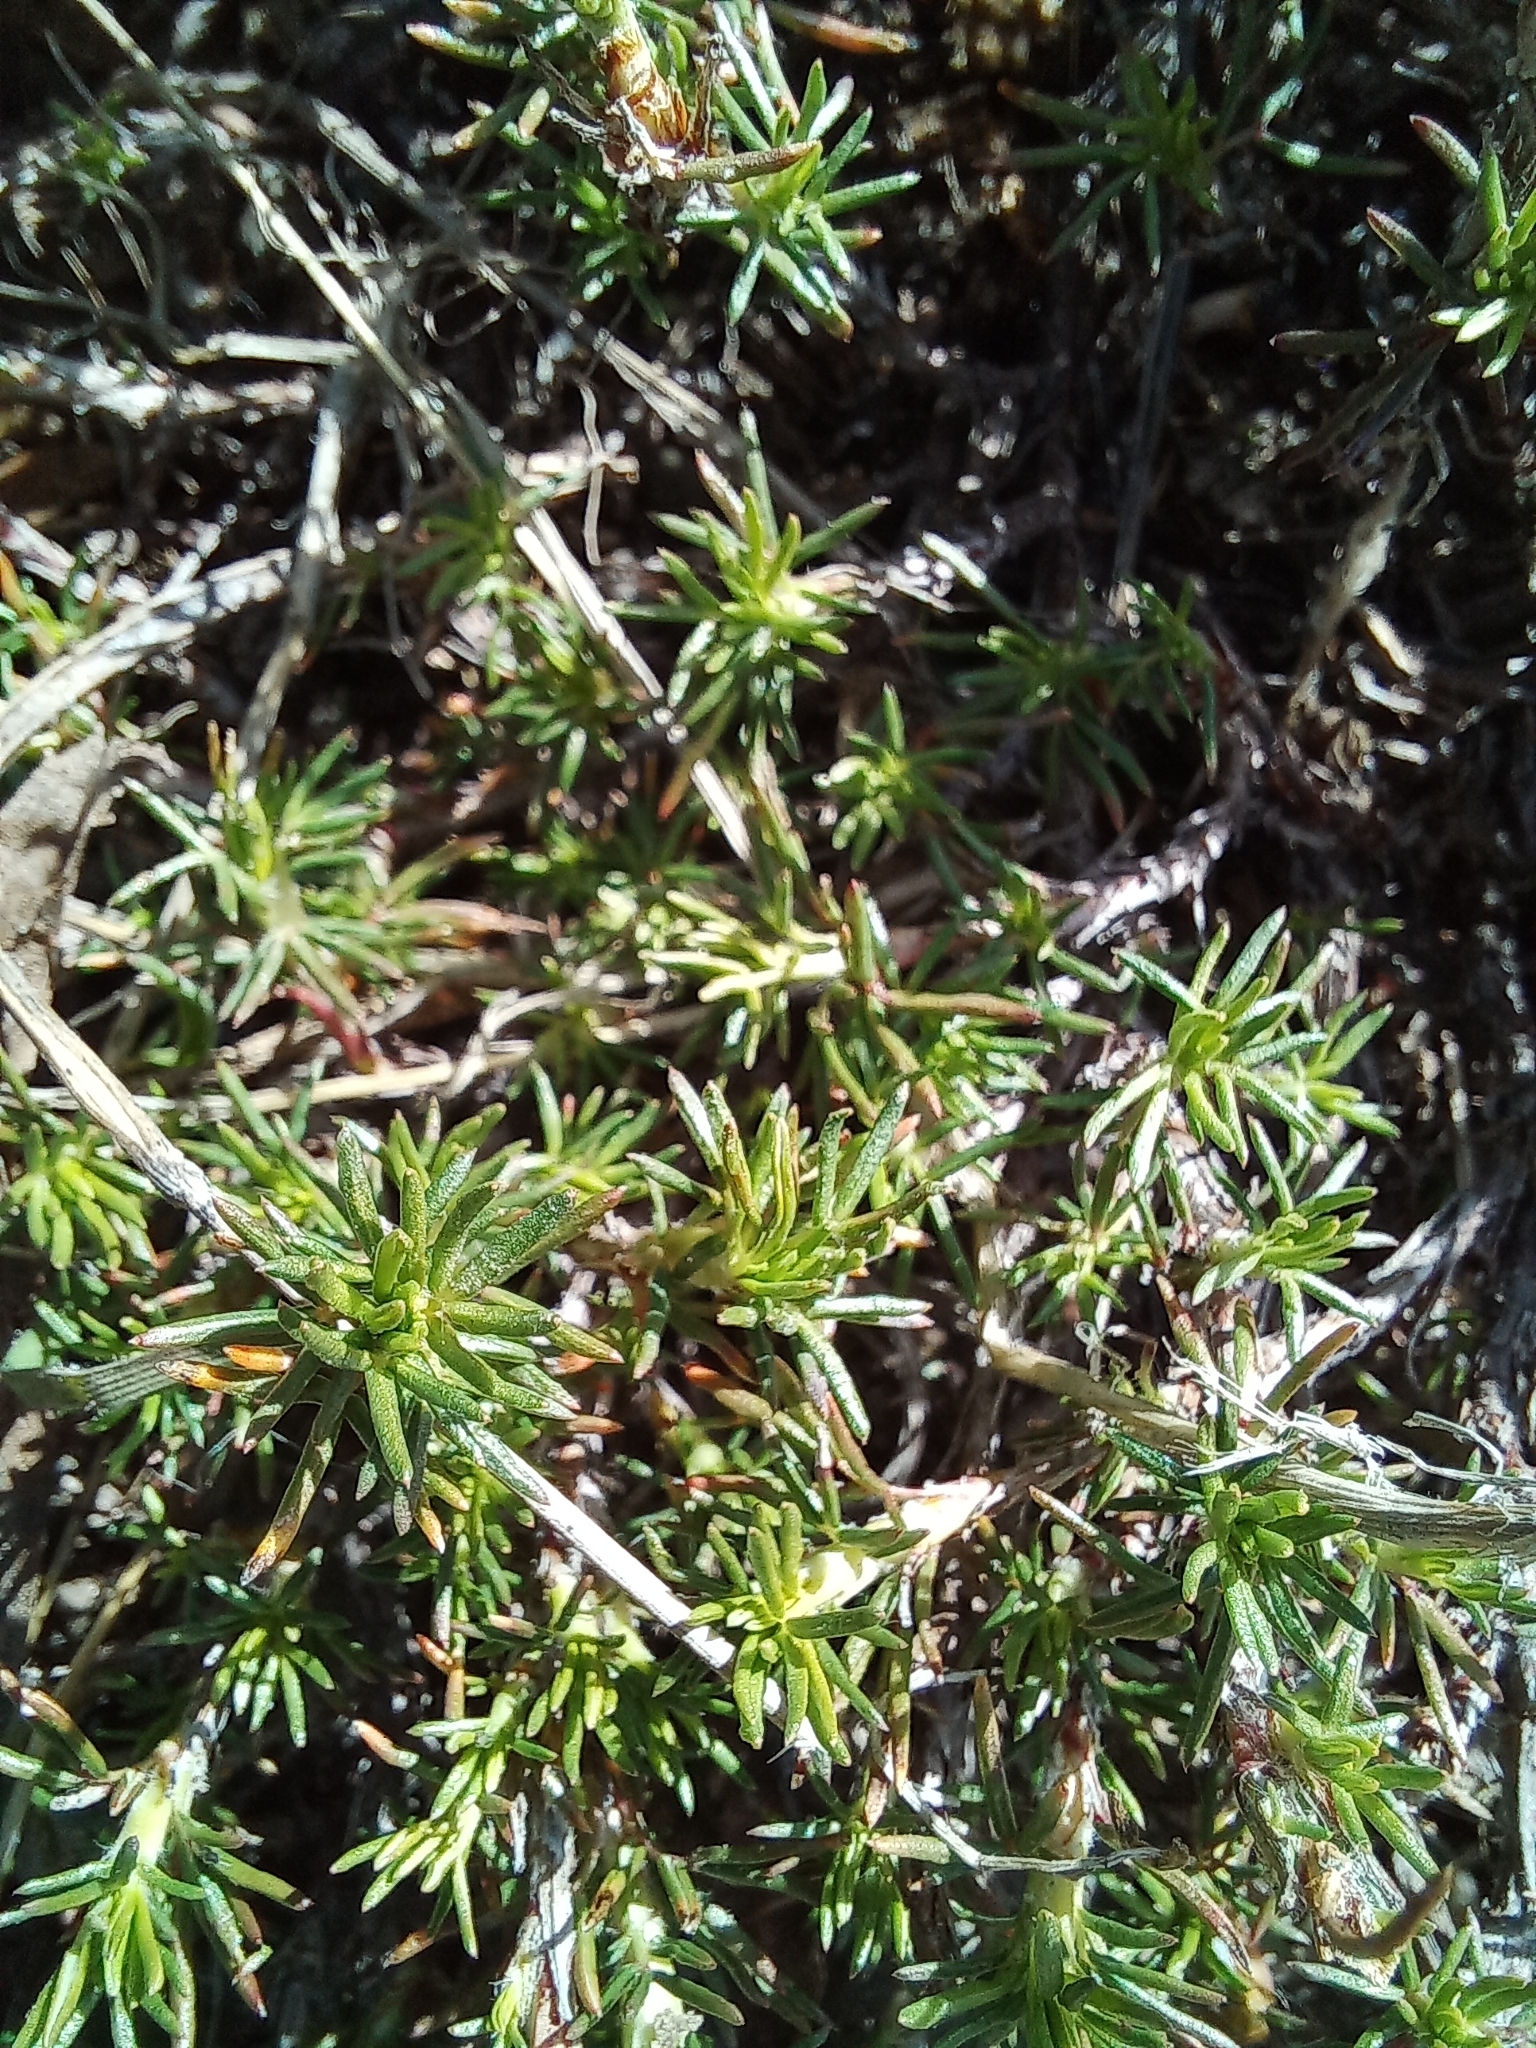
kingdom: Plantae
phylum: Tracheophyta
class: Magnoliopsida
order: Rosales
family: Rosaceae
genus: Margyricarpus
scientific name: Margyricarpus pinnatus
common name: Pearlfruit
